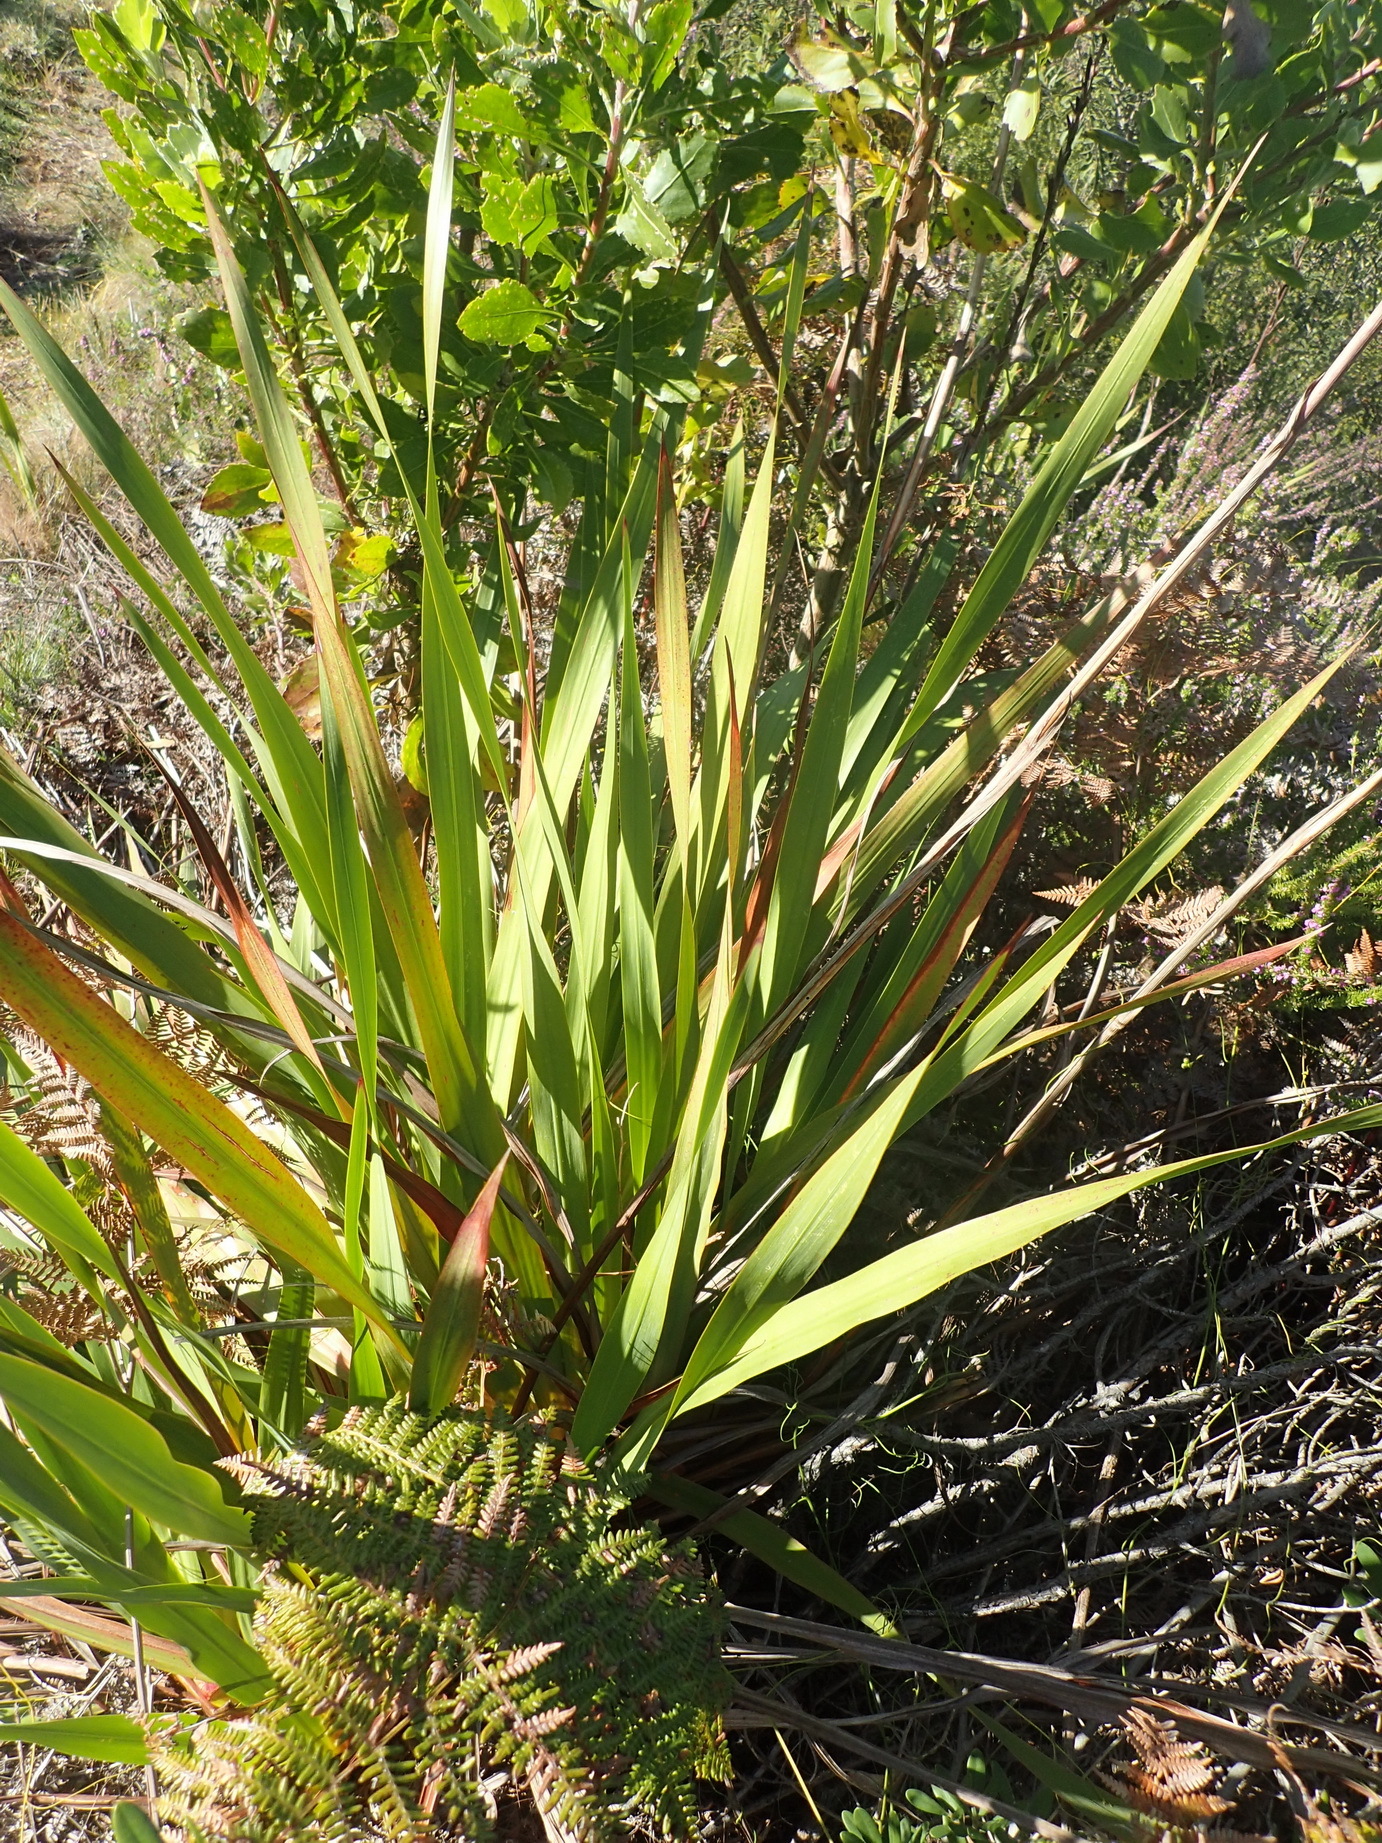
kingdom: Plantae
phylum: Tracheophyta
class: Liliopsida
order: Asparagales
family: Iridaceae
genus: Watsonia
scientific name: Watsonia pillansii
